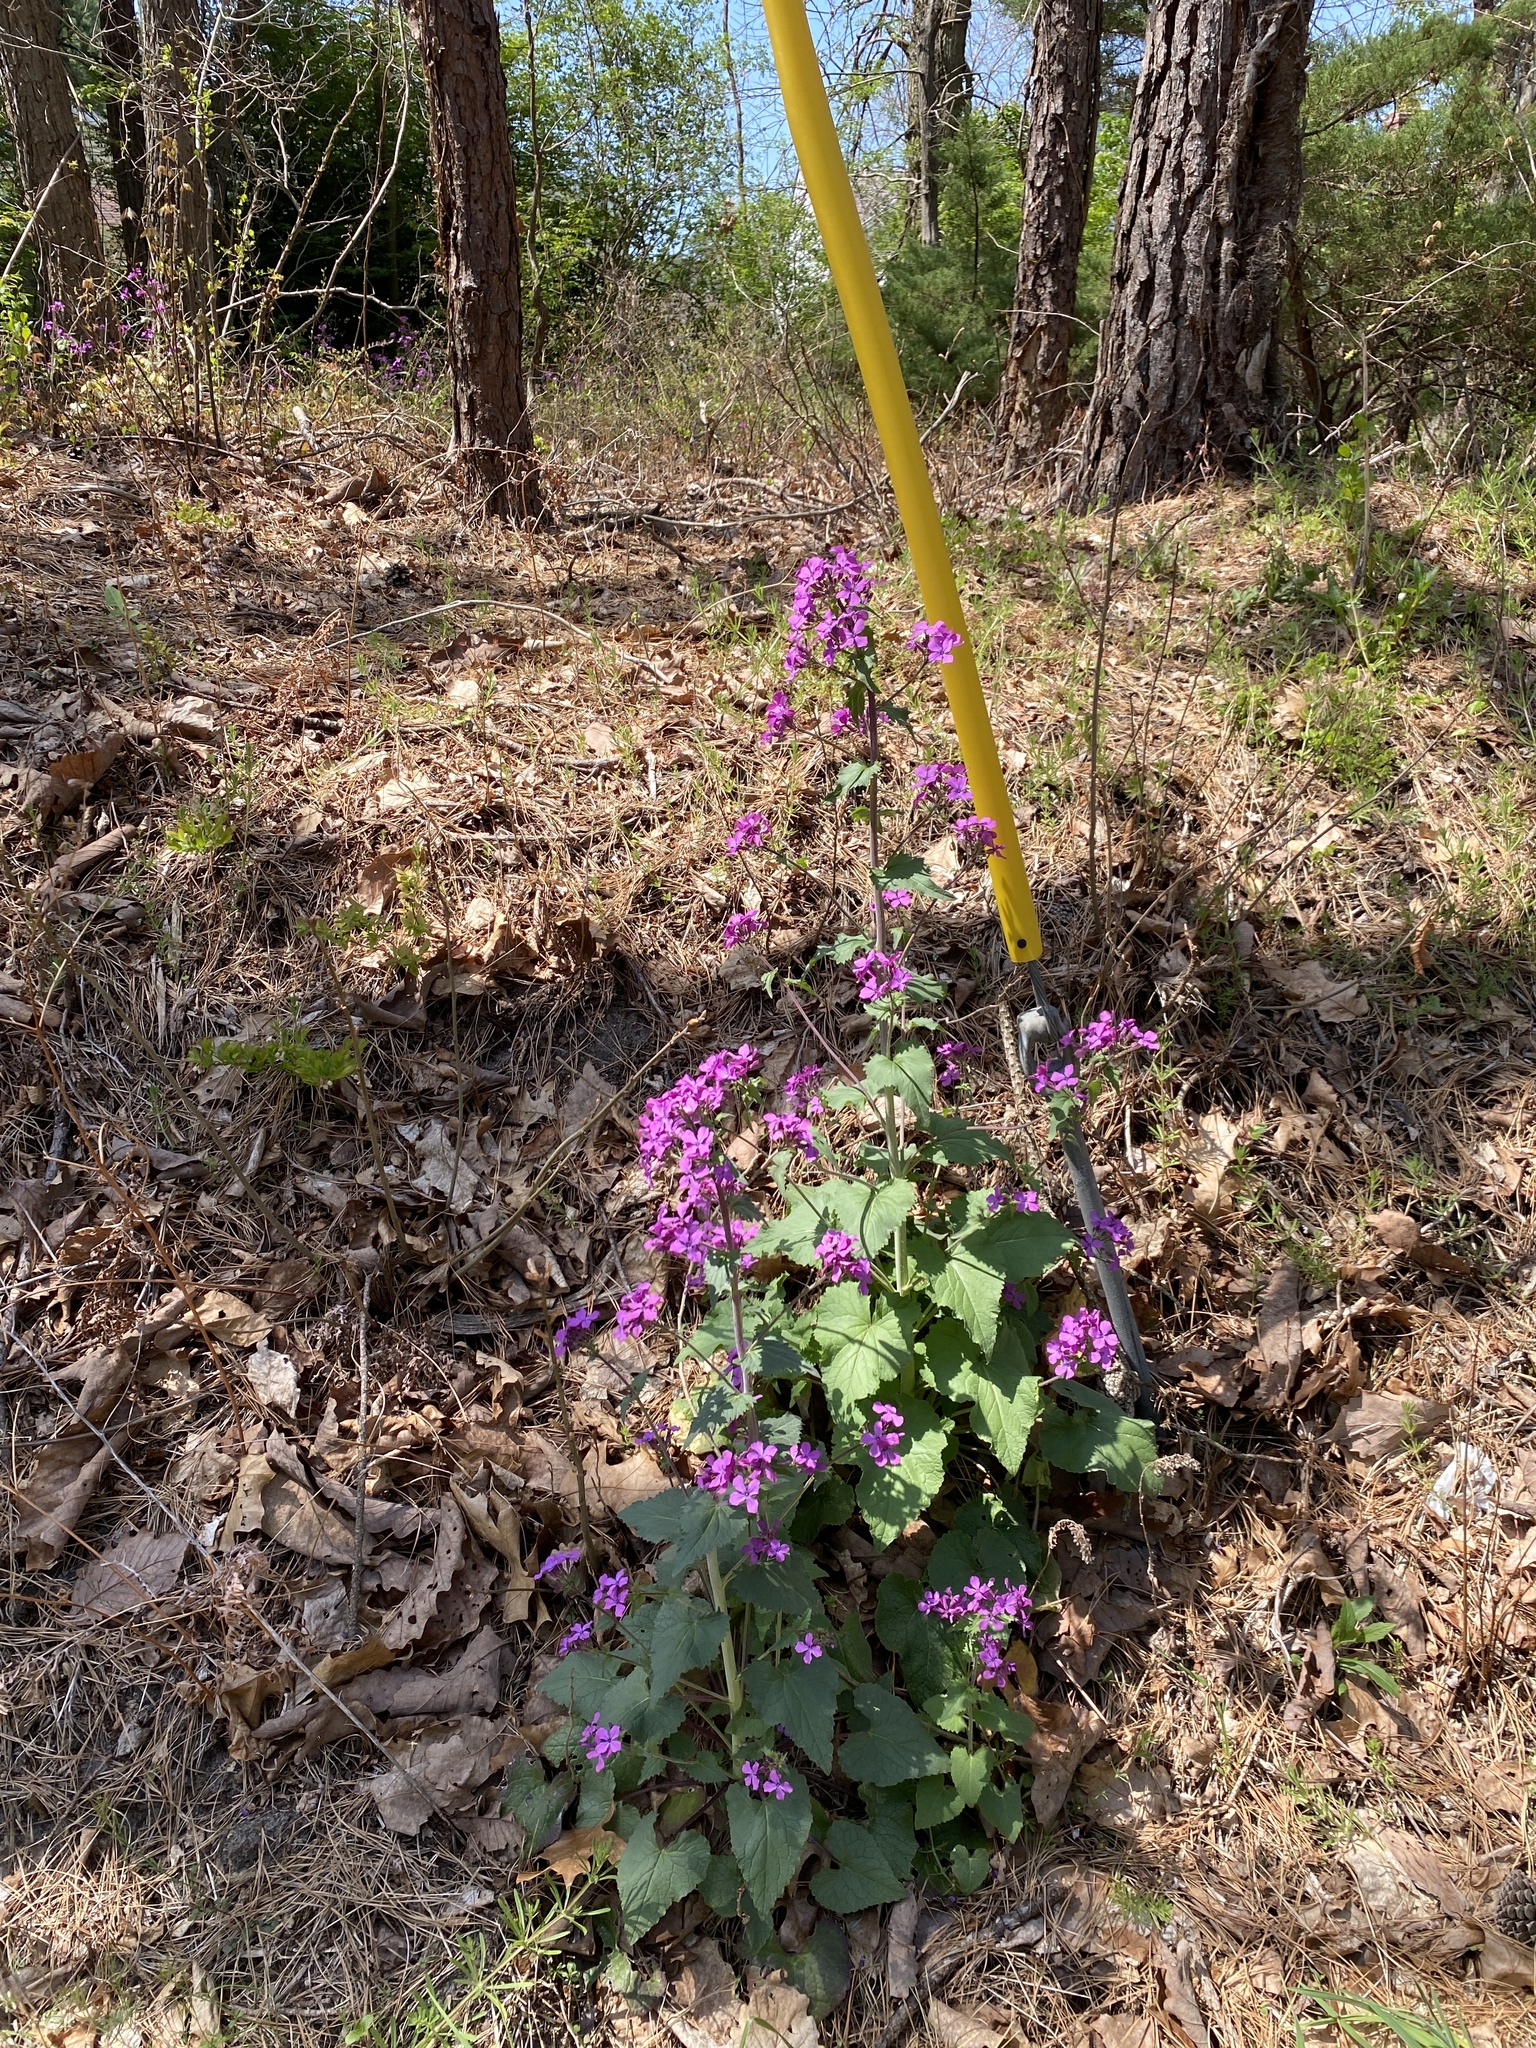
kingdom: Plantae
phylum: Tracheophyta
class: Magnoliopsida
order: Brassicales
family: Brassicaceae
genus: Lunaria
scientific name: Lunaria annua
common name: Honesty
